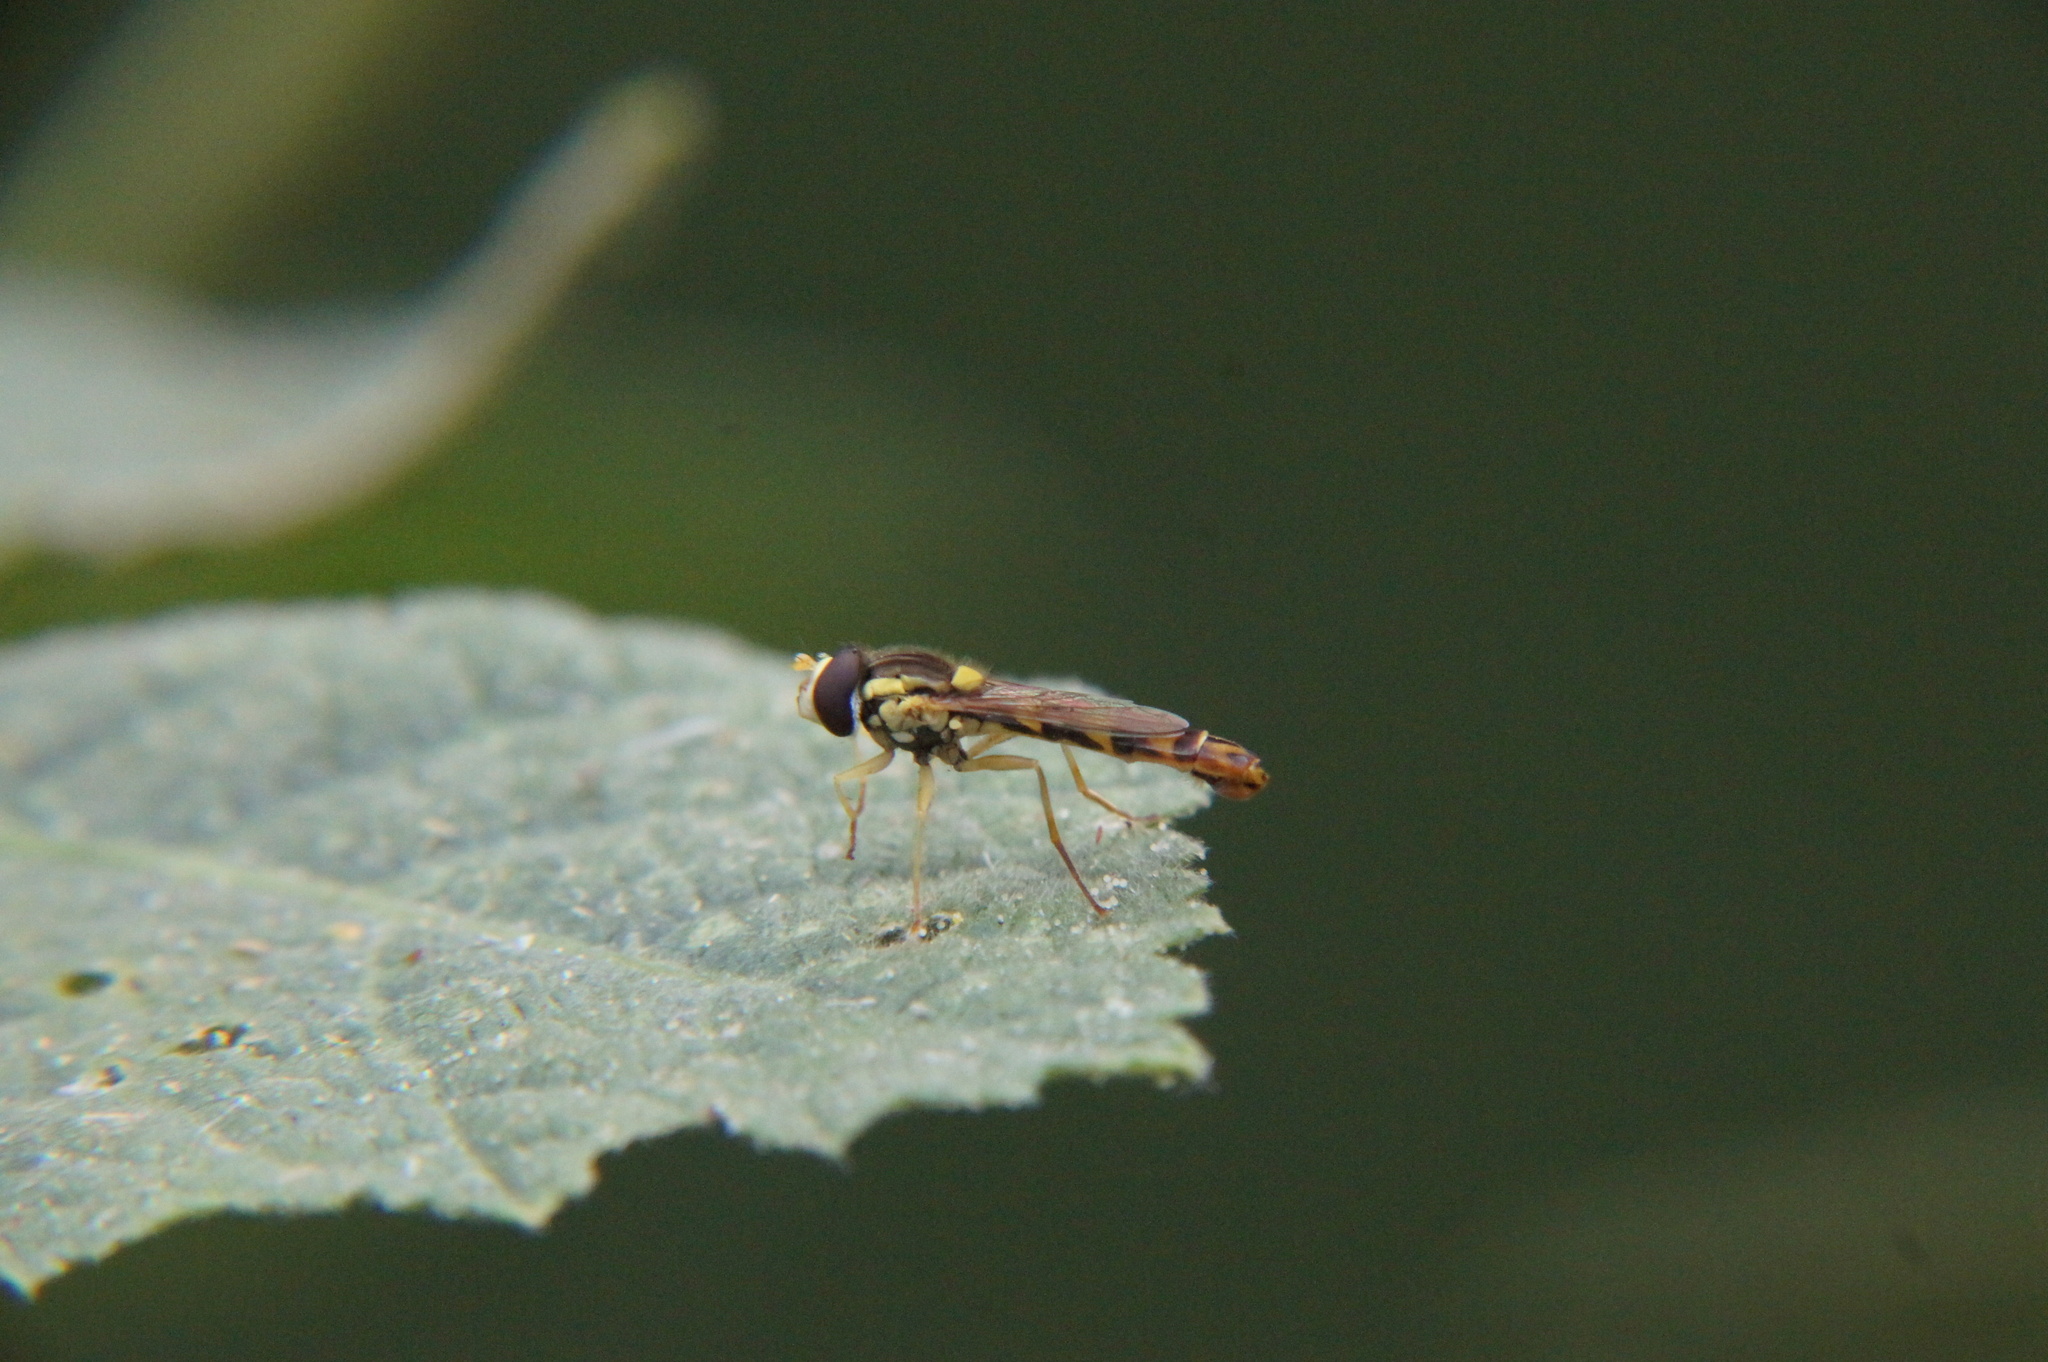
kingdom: Animalia
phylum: Arthropoda
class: Insecta
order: Diptera
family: Syrphidae
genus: Sphaerophoria
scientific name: Sphaerophoria scripta
